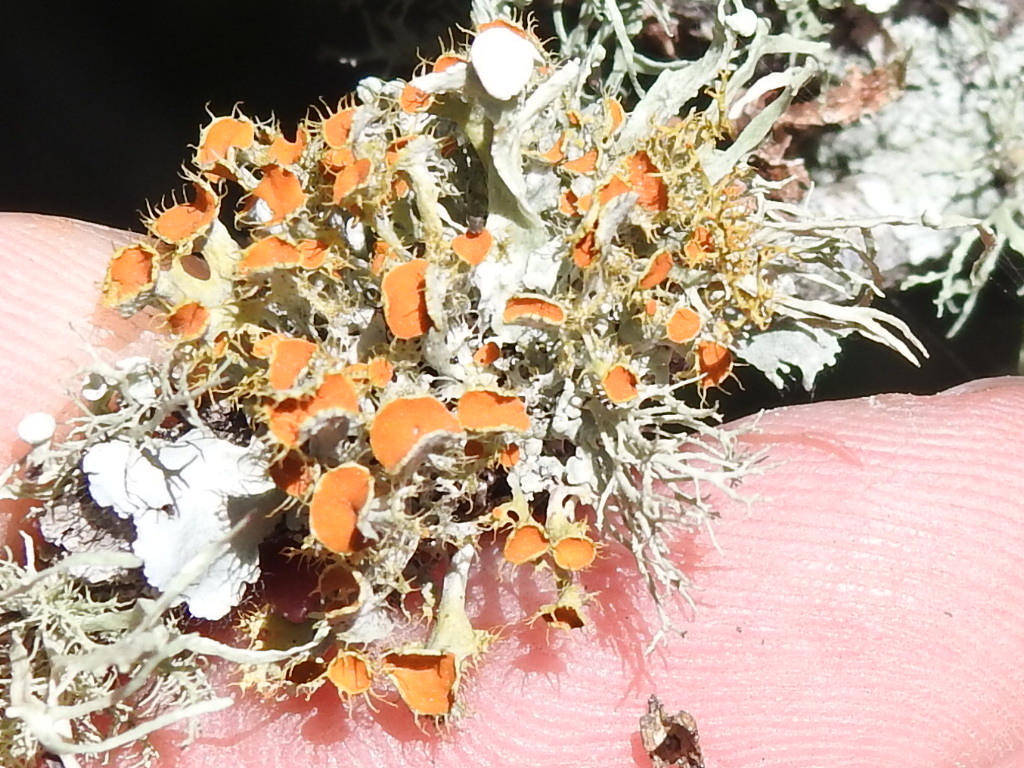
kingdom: Fungi
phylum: Ascomycota
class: Lecanoromycetes
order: Teloschistales
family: Teloschistaceae
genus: Niorma
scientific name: Niorma chrysophthalma
